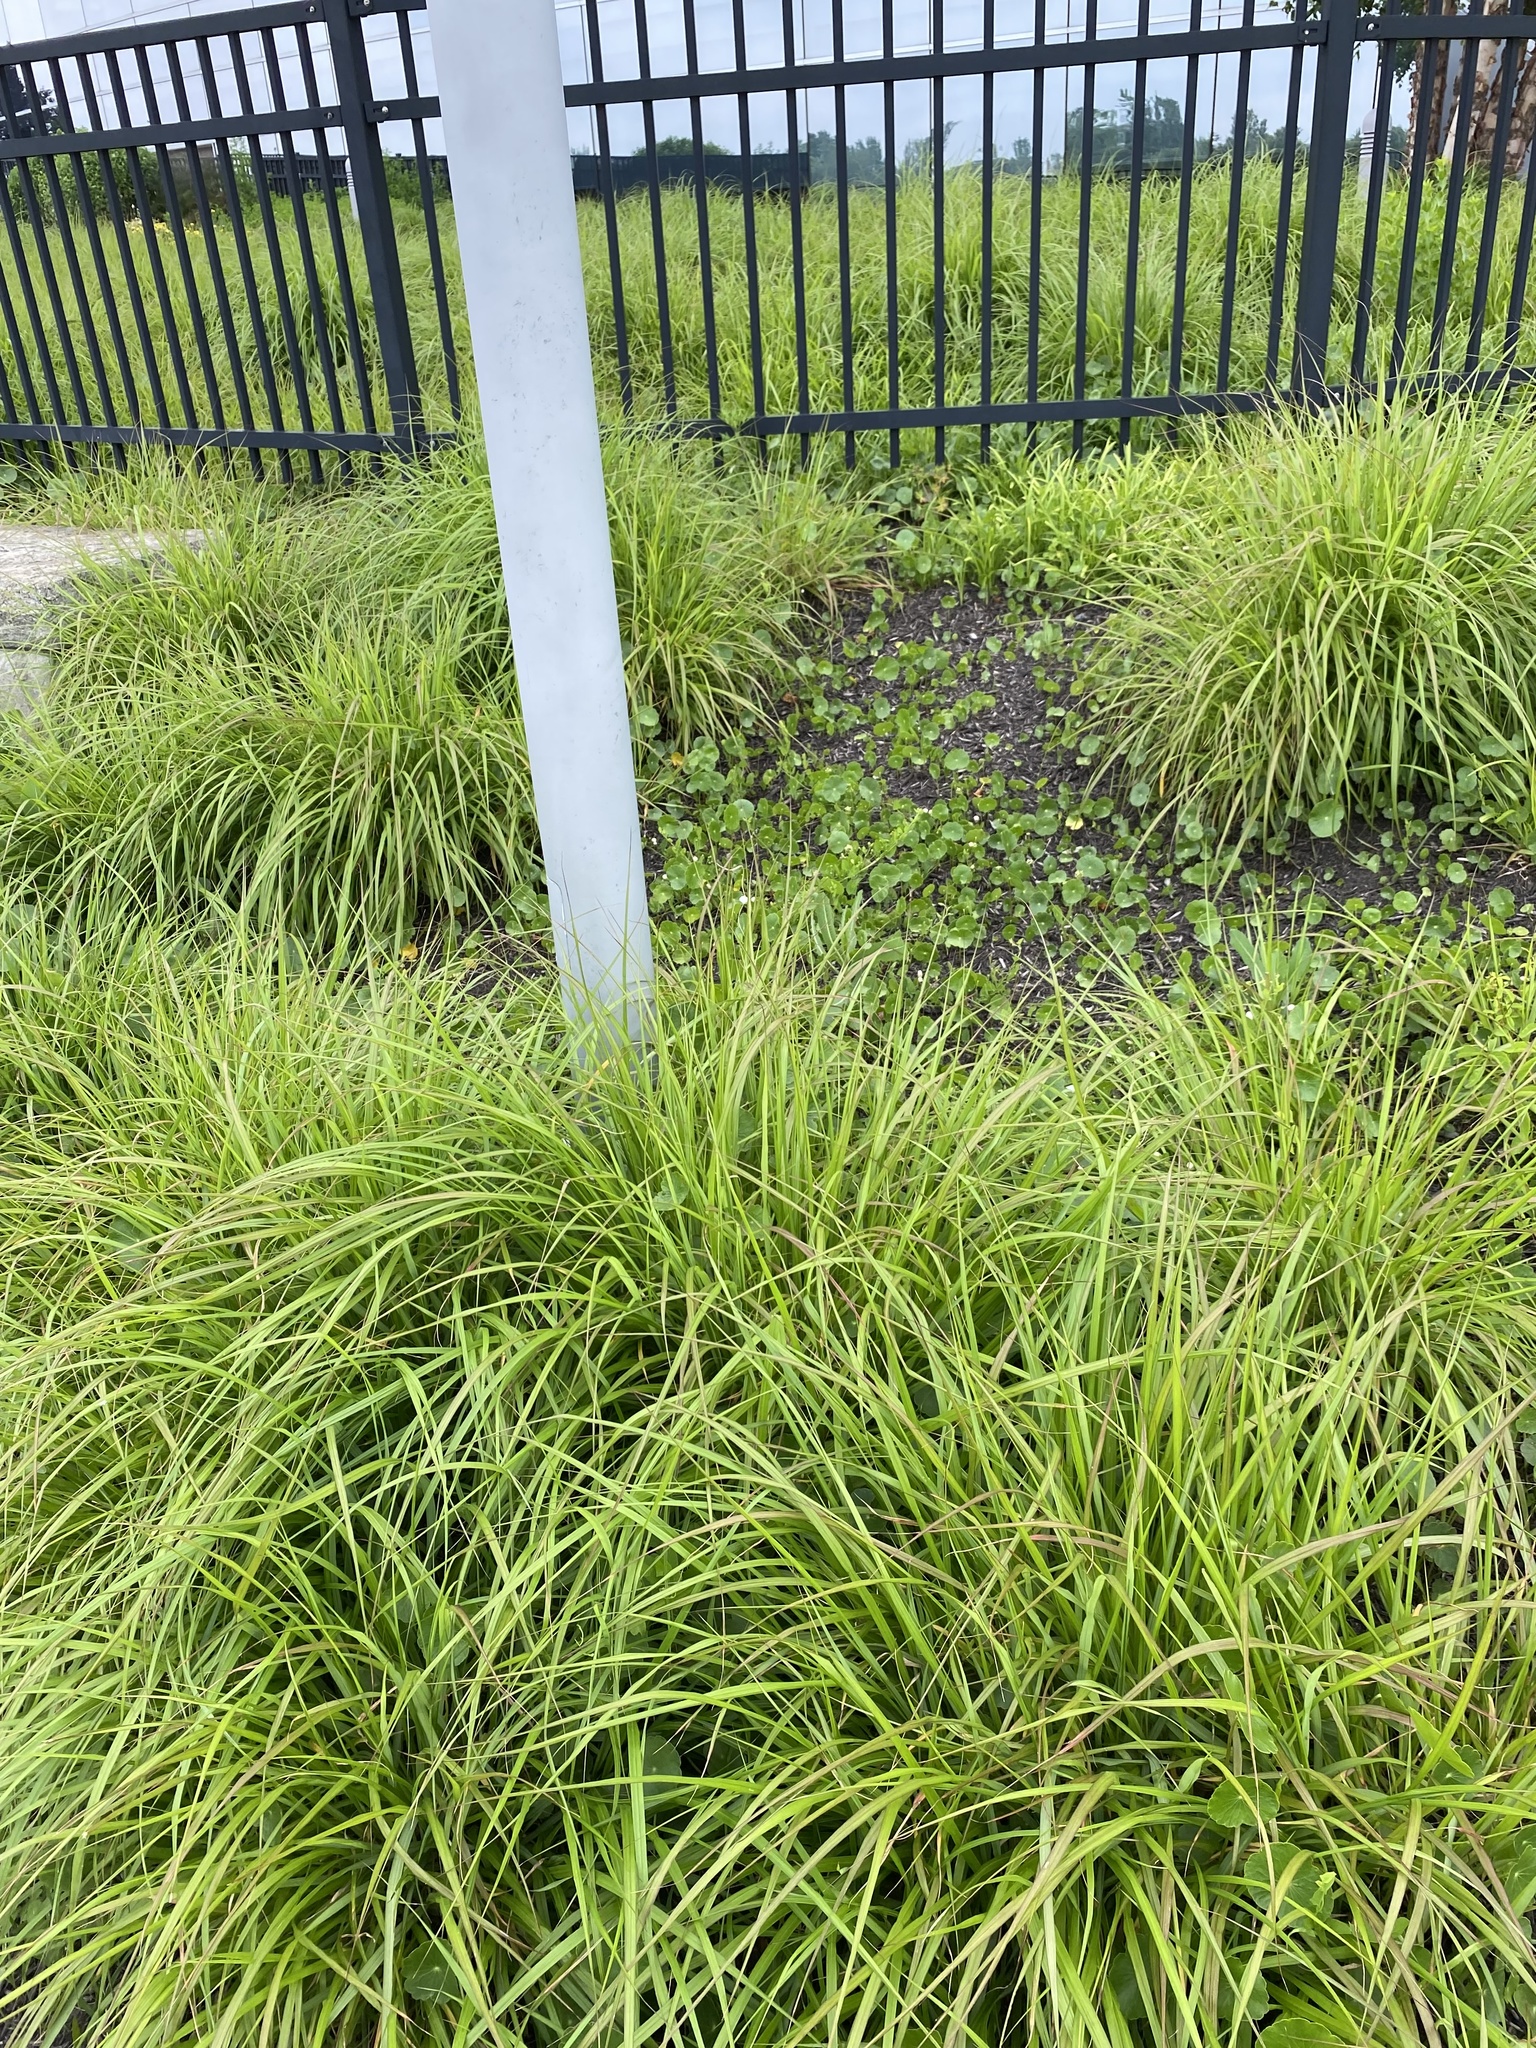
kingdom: Plantae
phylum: Tracheophyta
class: Magnoliopsida
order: Apiales
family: Araliaceae
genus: Hydrocotyle
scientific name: Hydrocotyle prolifera
